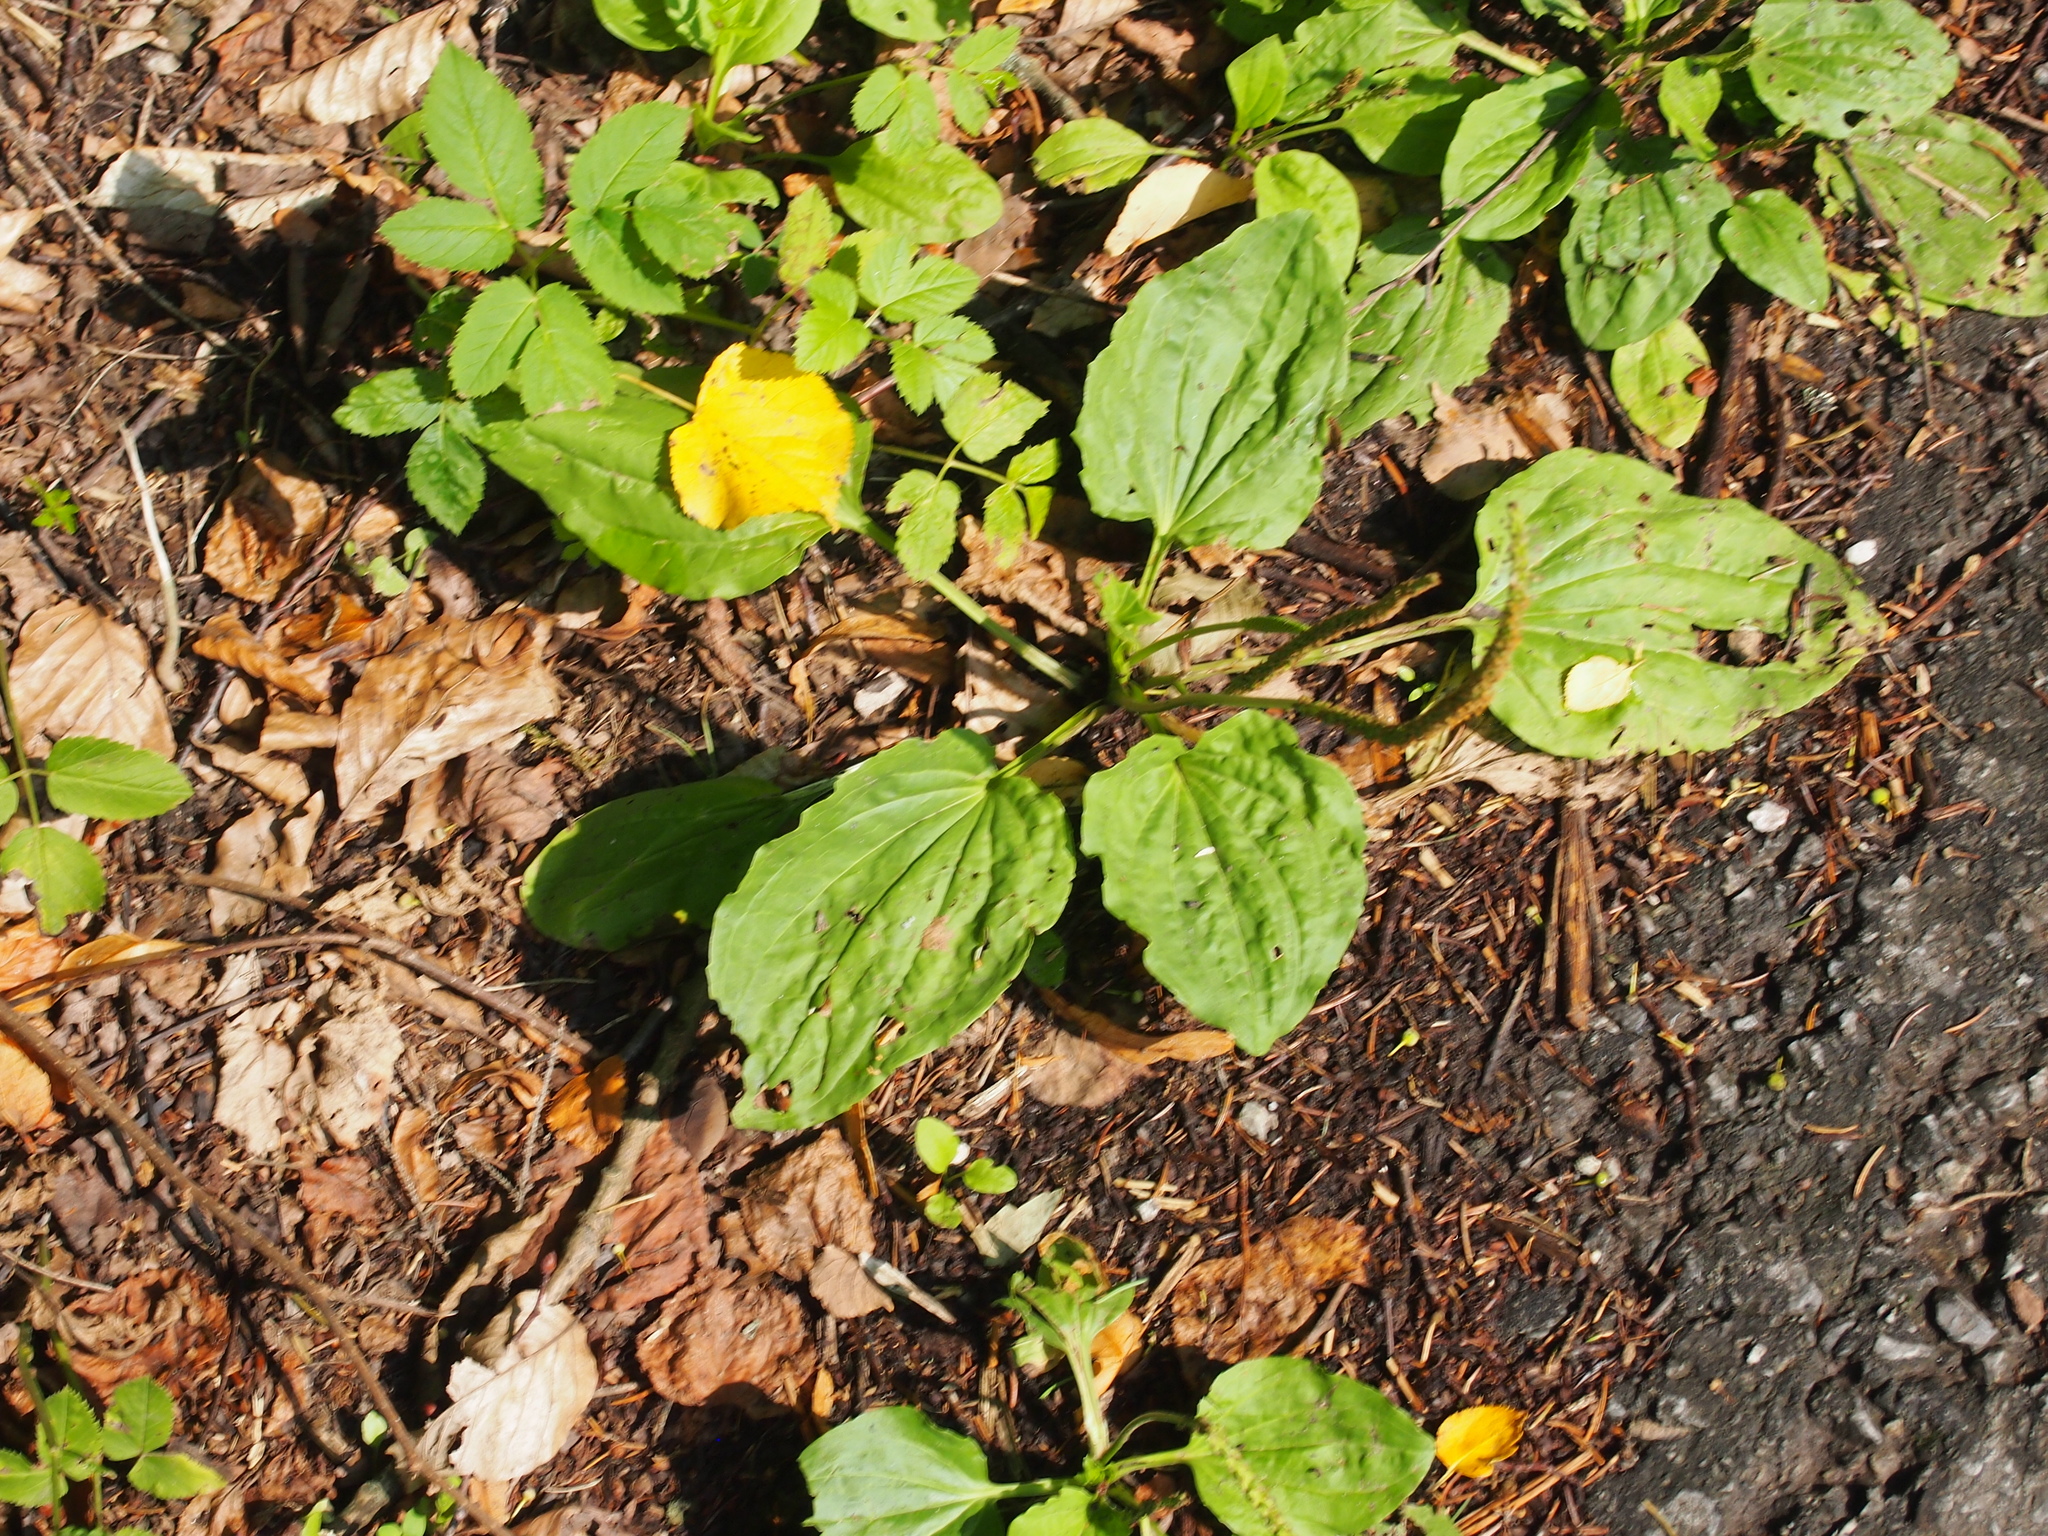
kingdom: Plantae
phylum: Tracheophyta
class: Magnoliopsida
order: Lamiales
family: Plantaginaceae
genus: Plantago
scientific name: Plantago major
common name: Common plantain
